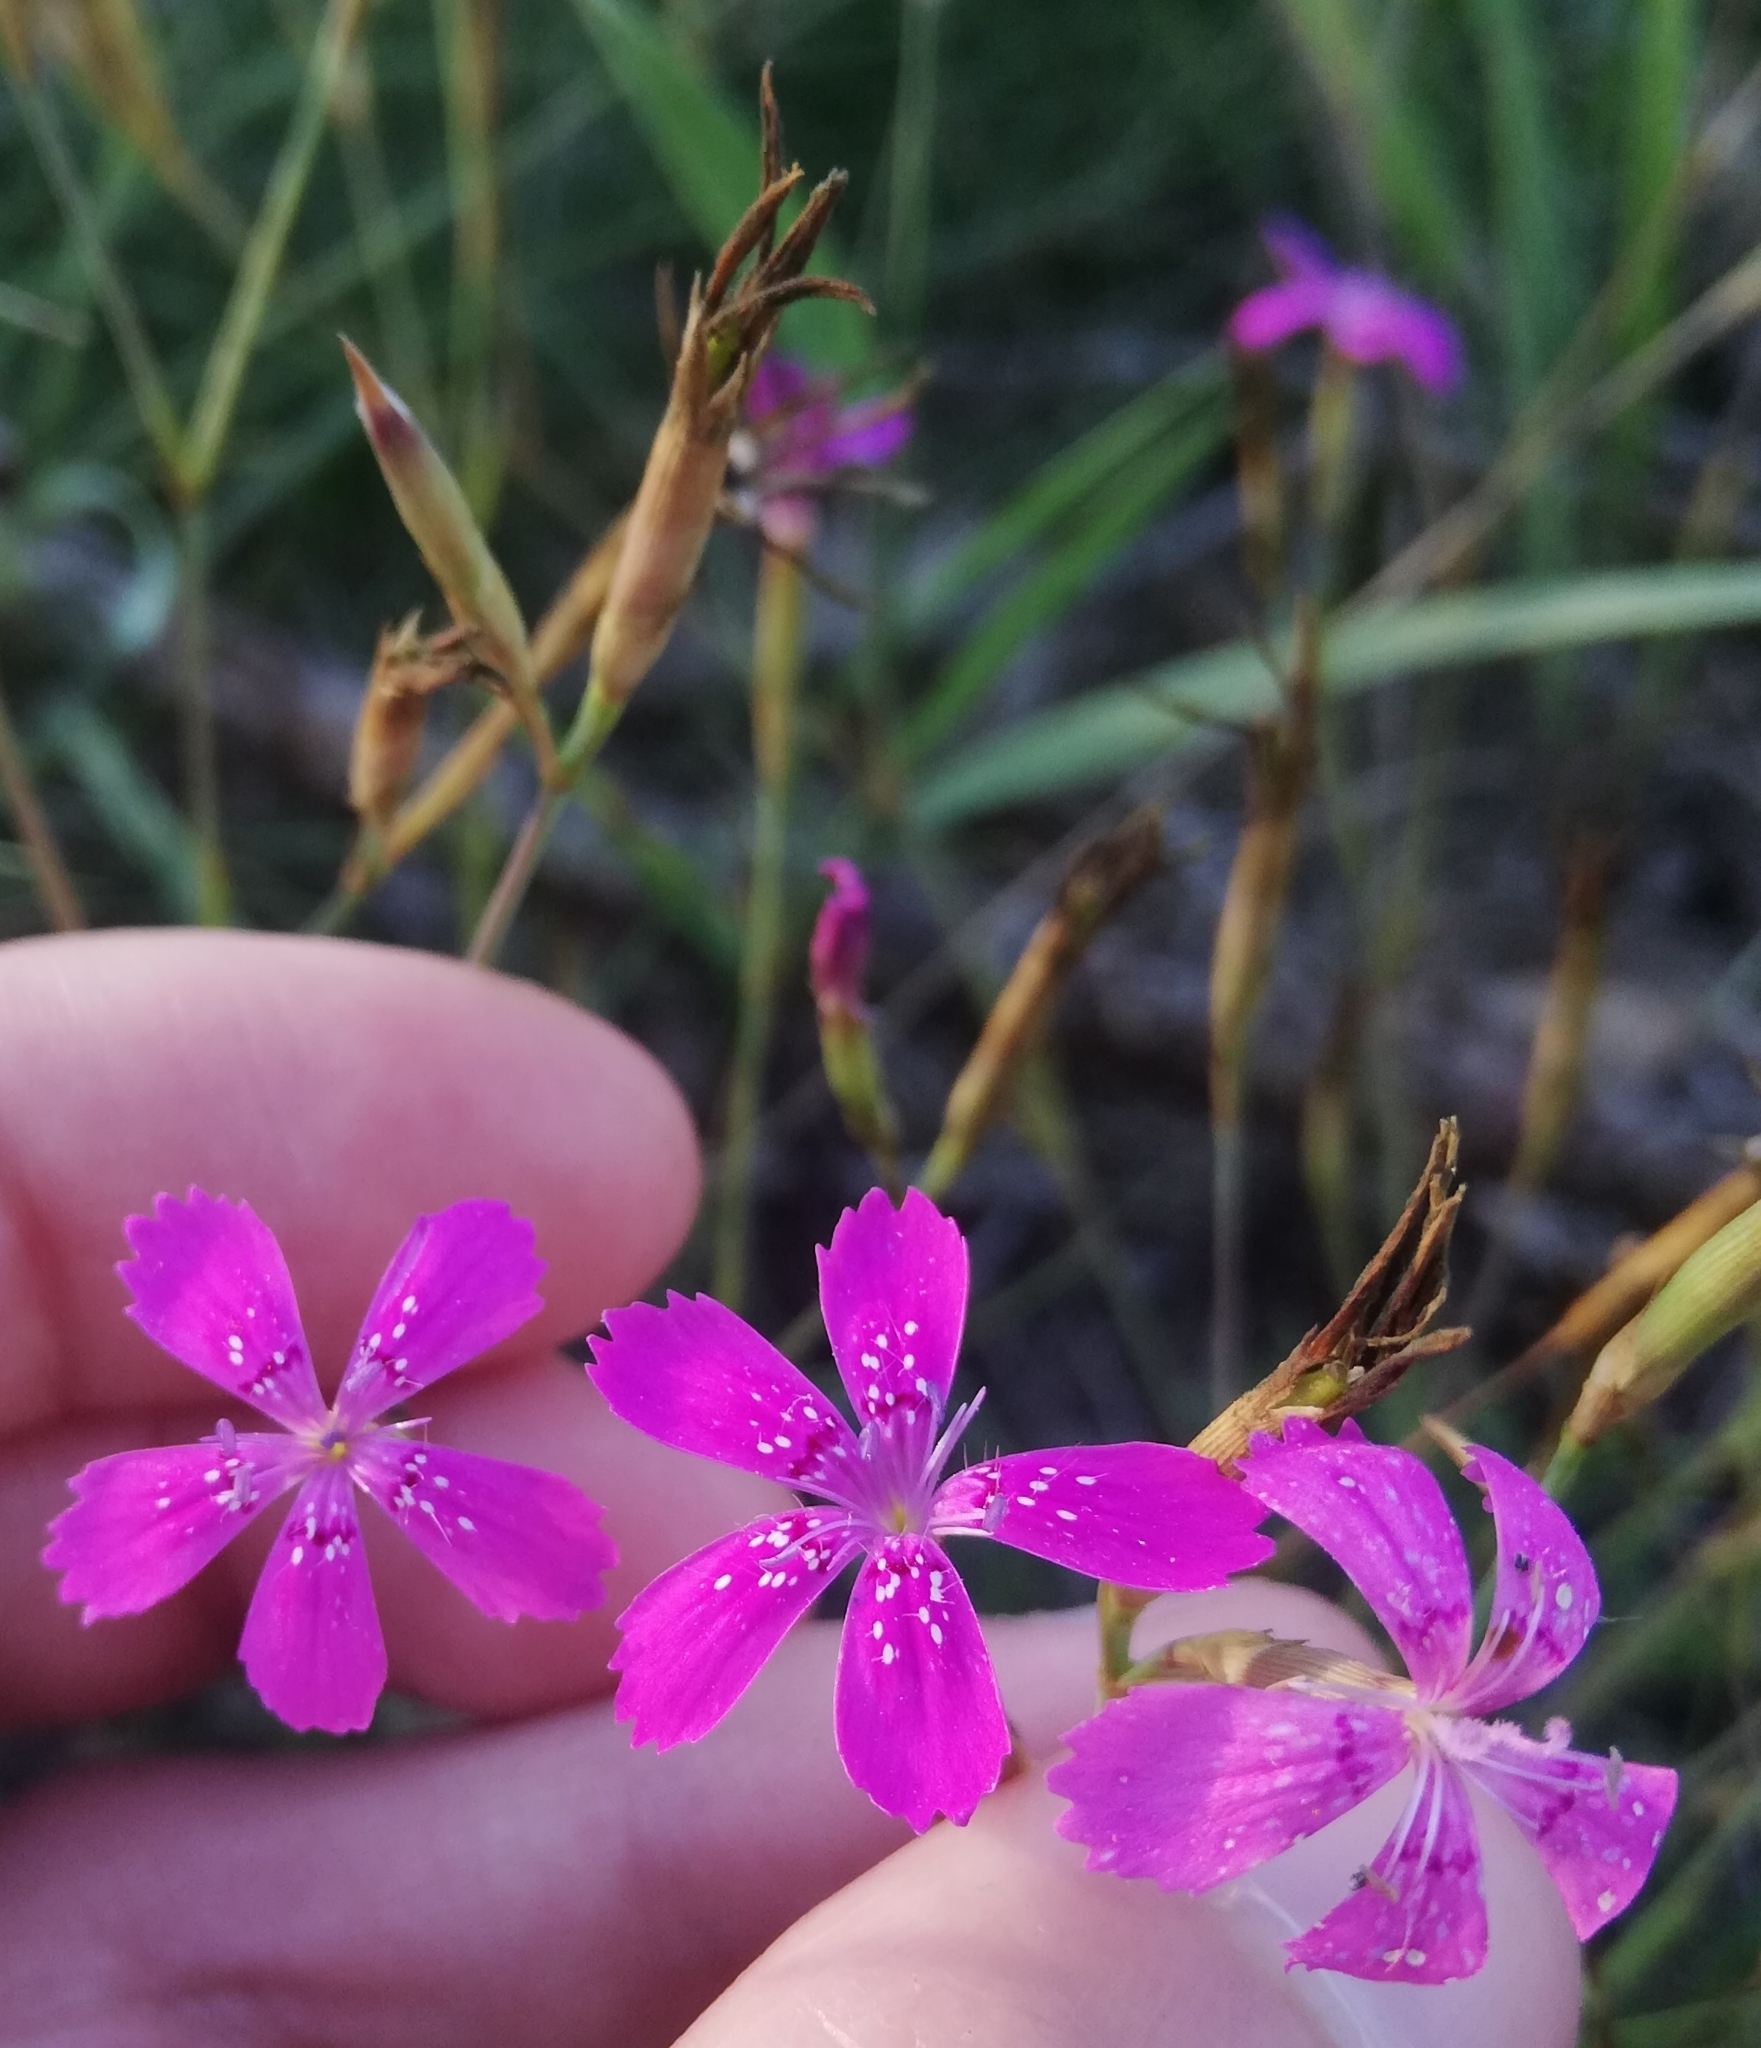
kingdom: Plantae
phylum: Tracheophyta
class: Magnoliopsida
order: Caryophyllales
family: Caryophyllaceae
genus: Dianthus
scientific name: Dianthus deltoides
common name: Maiden pink
